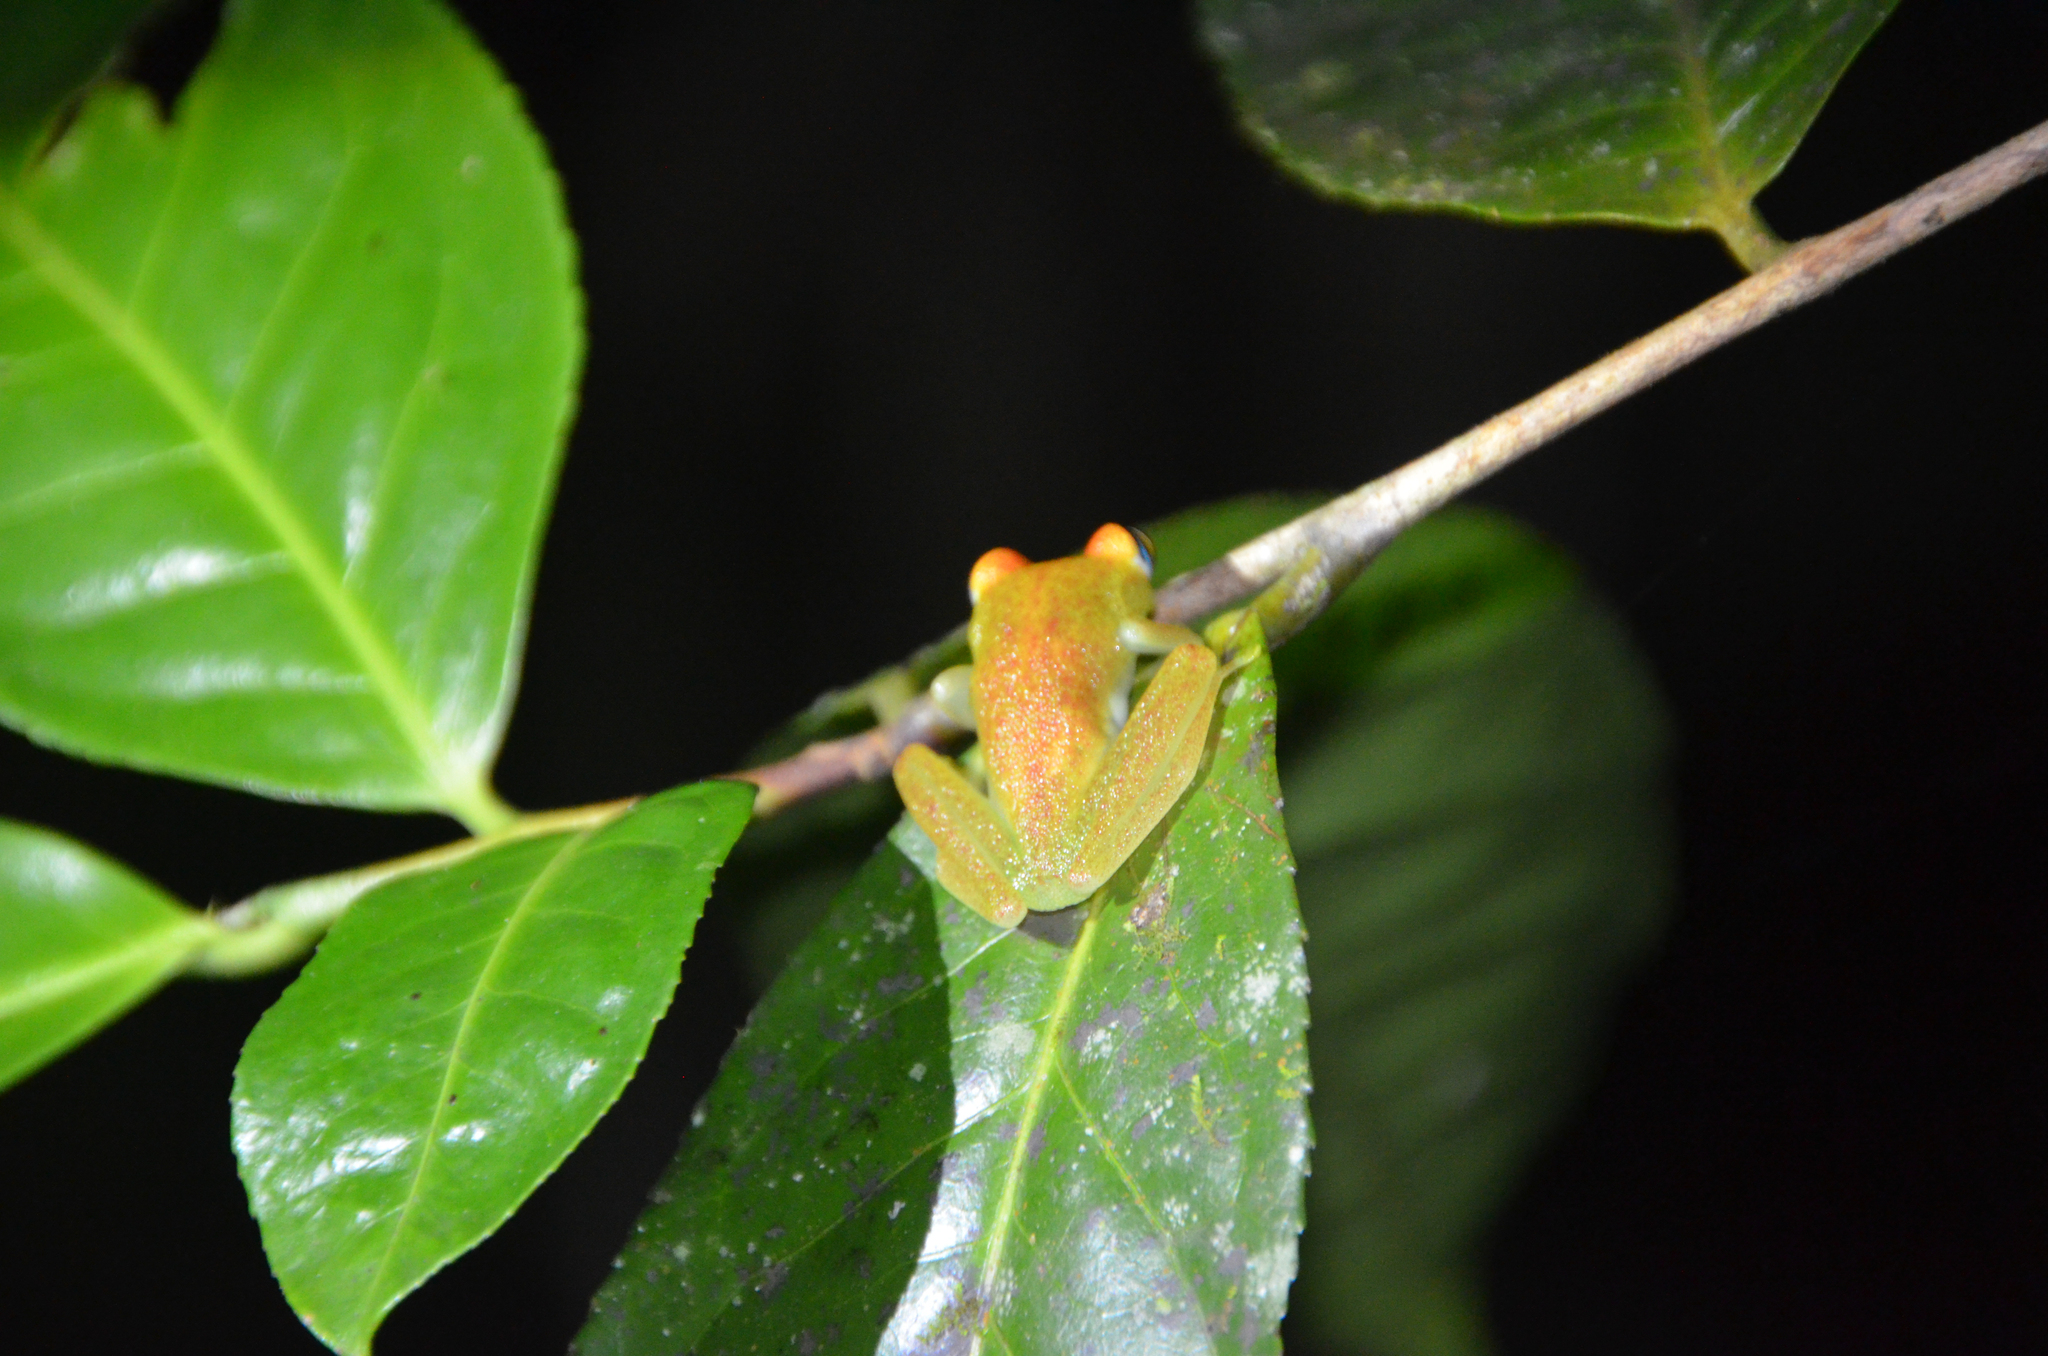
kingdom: Animalia
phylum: Chordata
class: Amphibia
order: Anura
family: Mantellidae
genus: Boophis
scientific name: Boophis viridis
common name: Green bright-eyed frog
